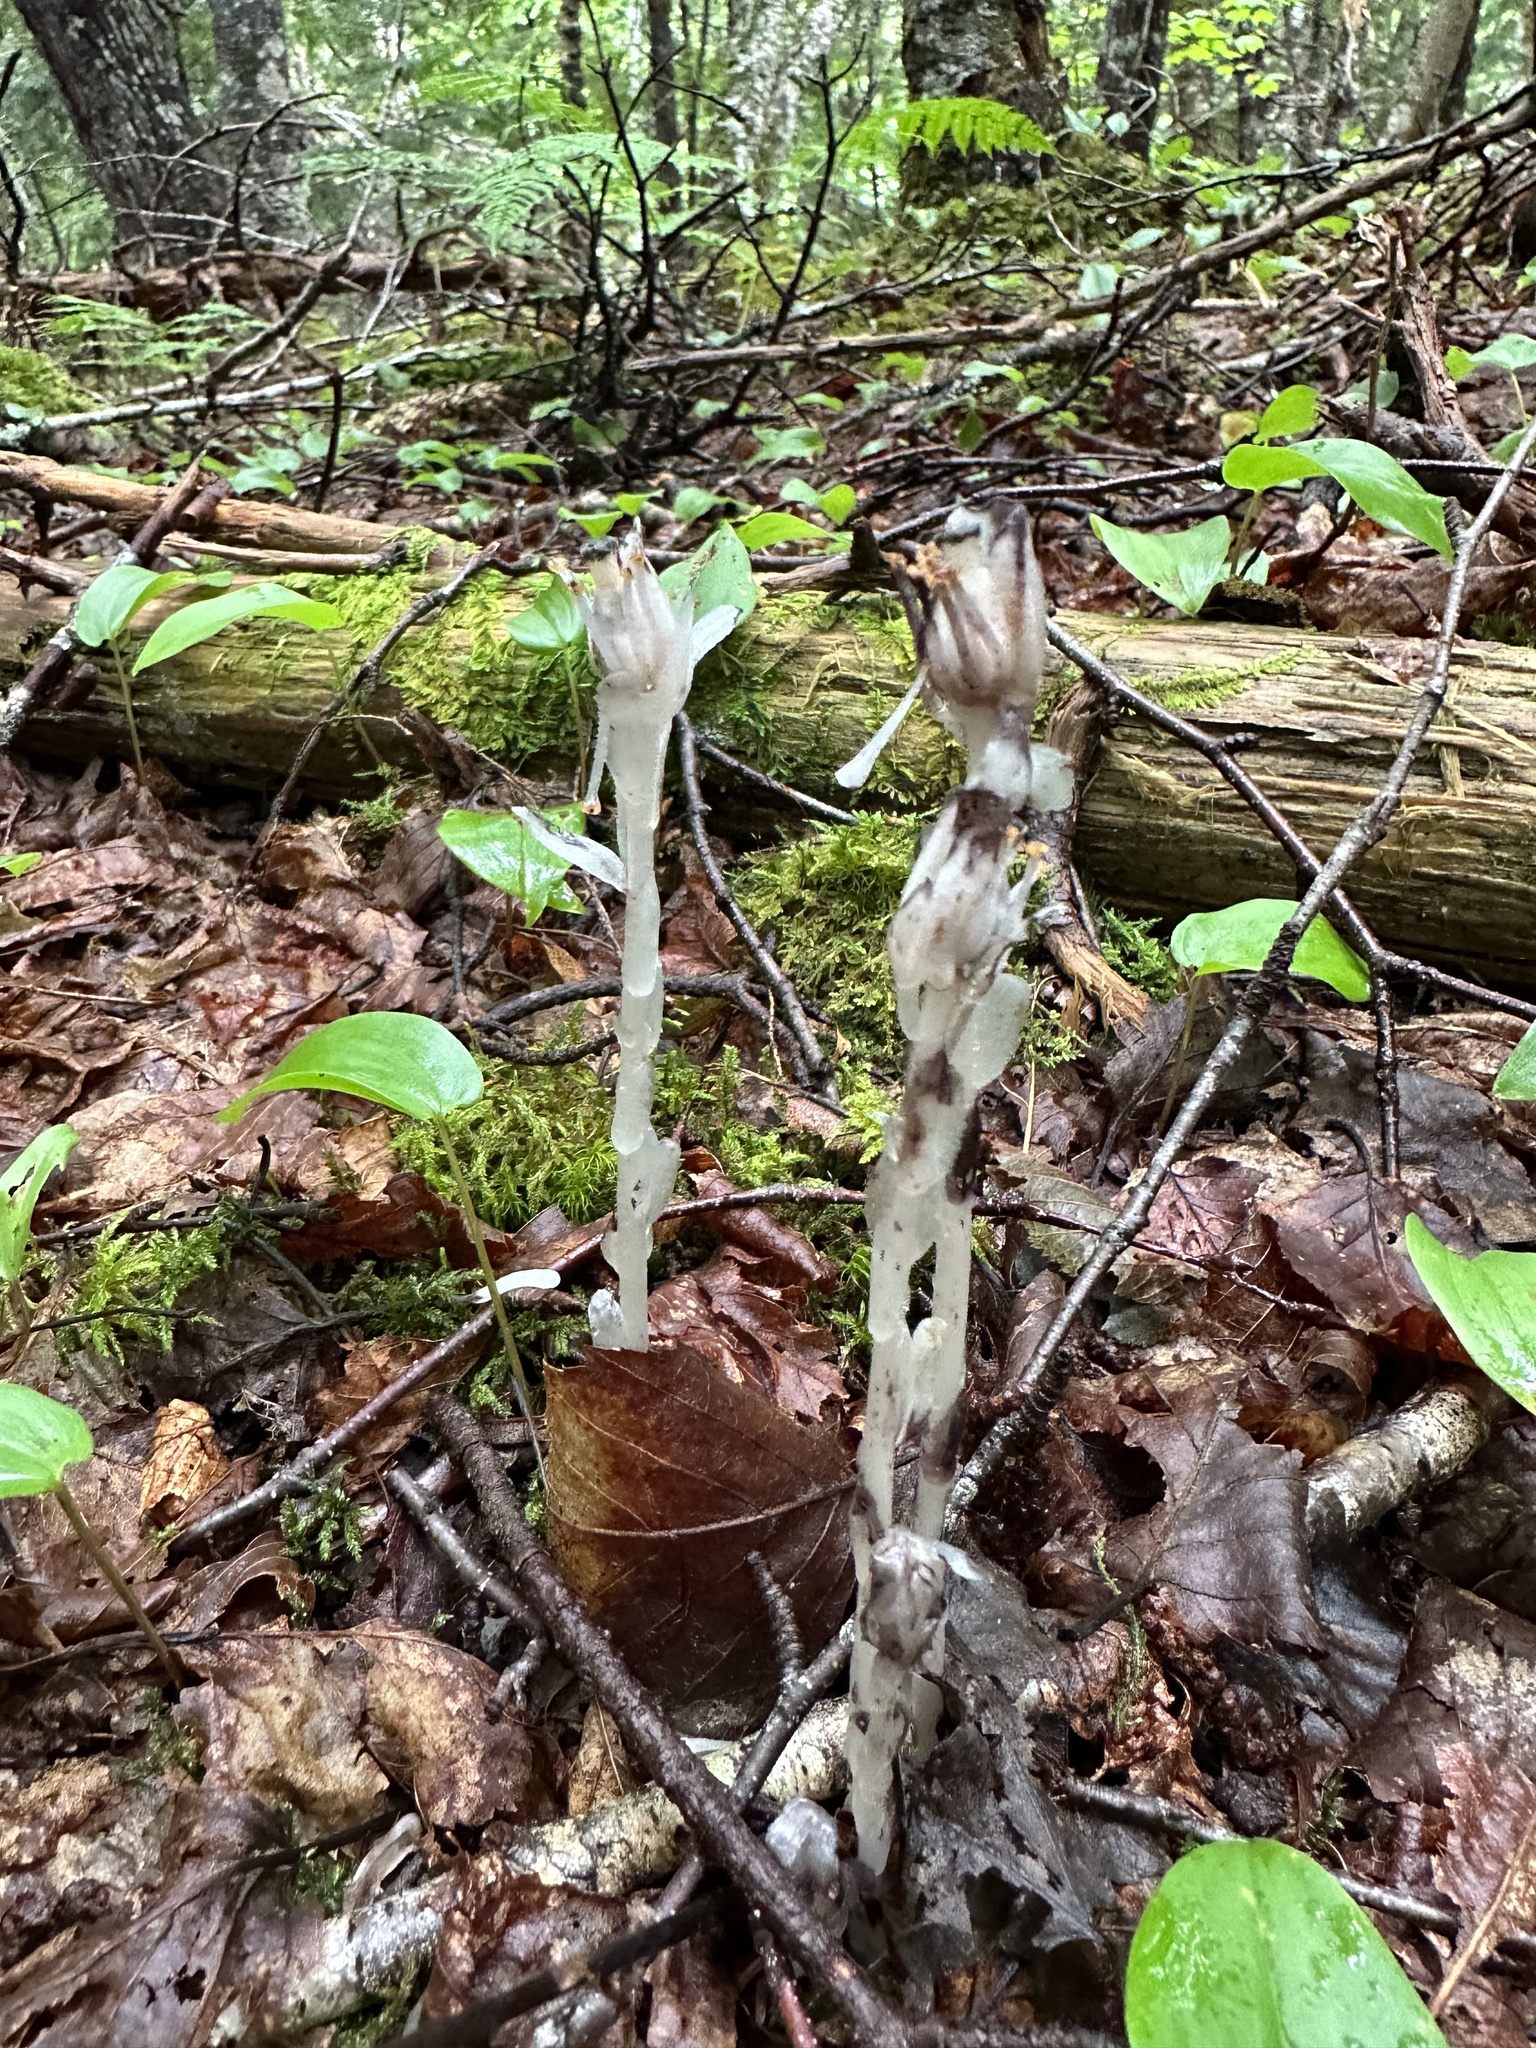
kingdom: Plantae
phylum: Tracheophyta
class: Magnoliopsida
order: Ericales
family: Ericaceae
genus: Monotropa
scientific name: Monotropa uniflora
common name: Convulsion root
